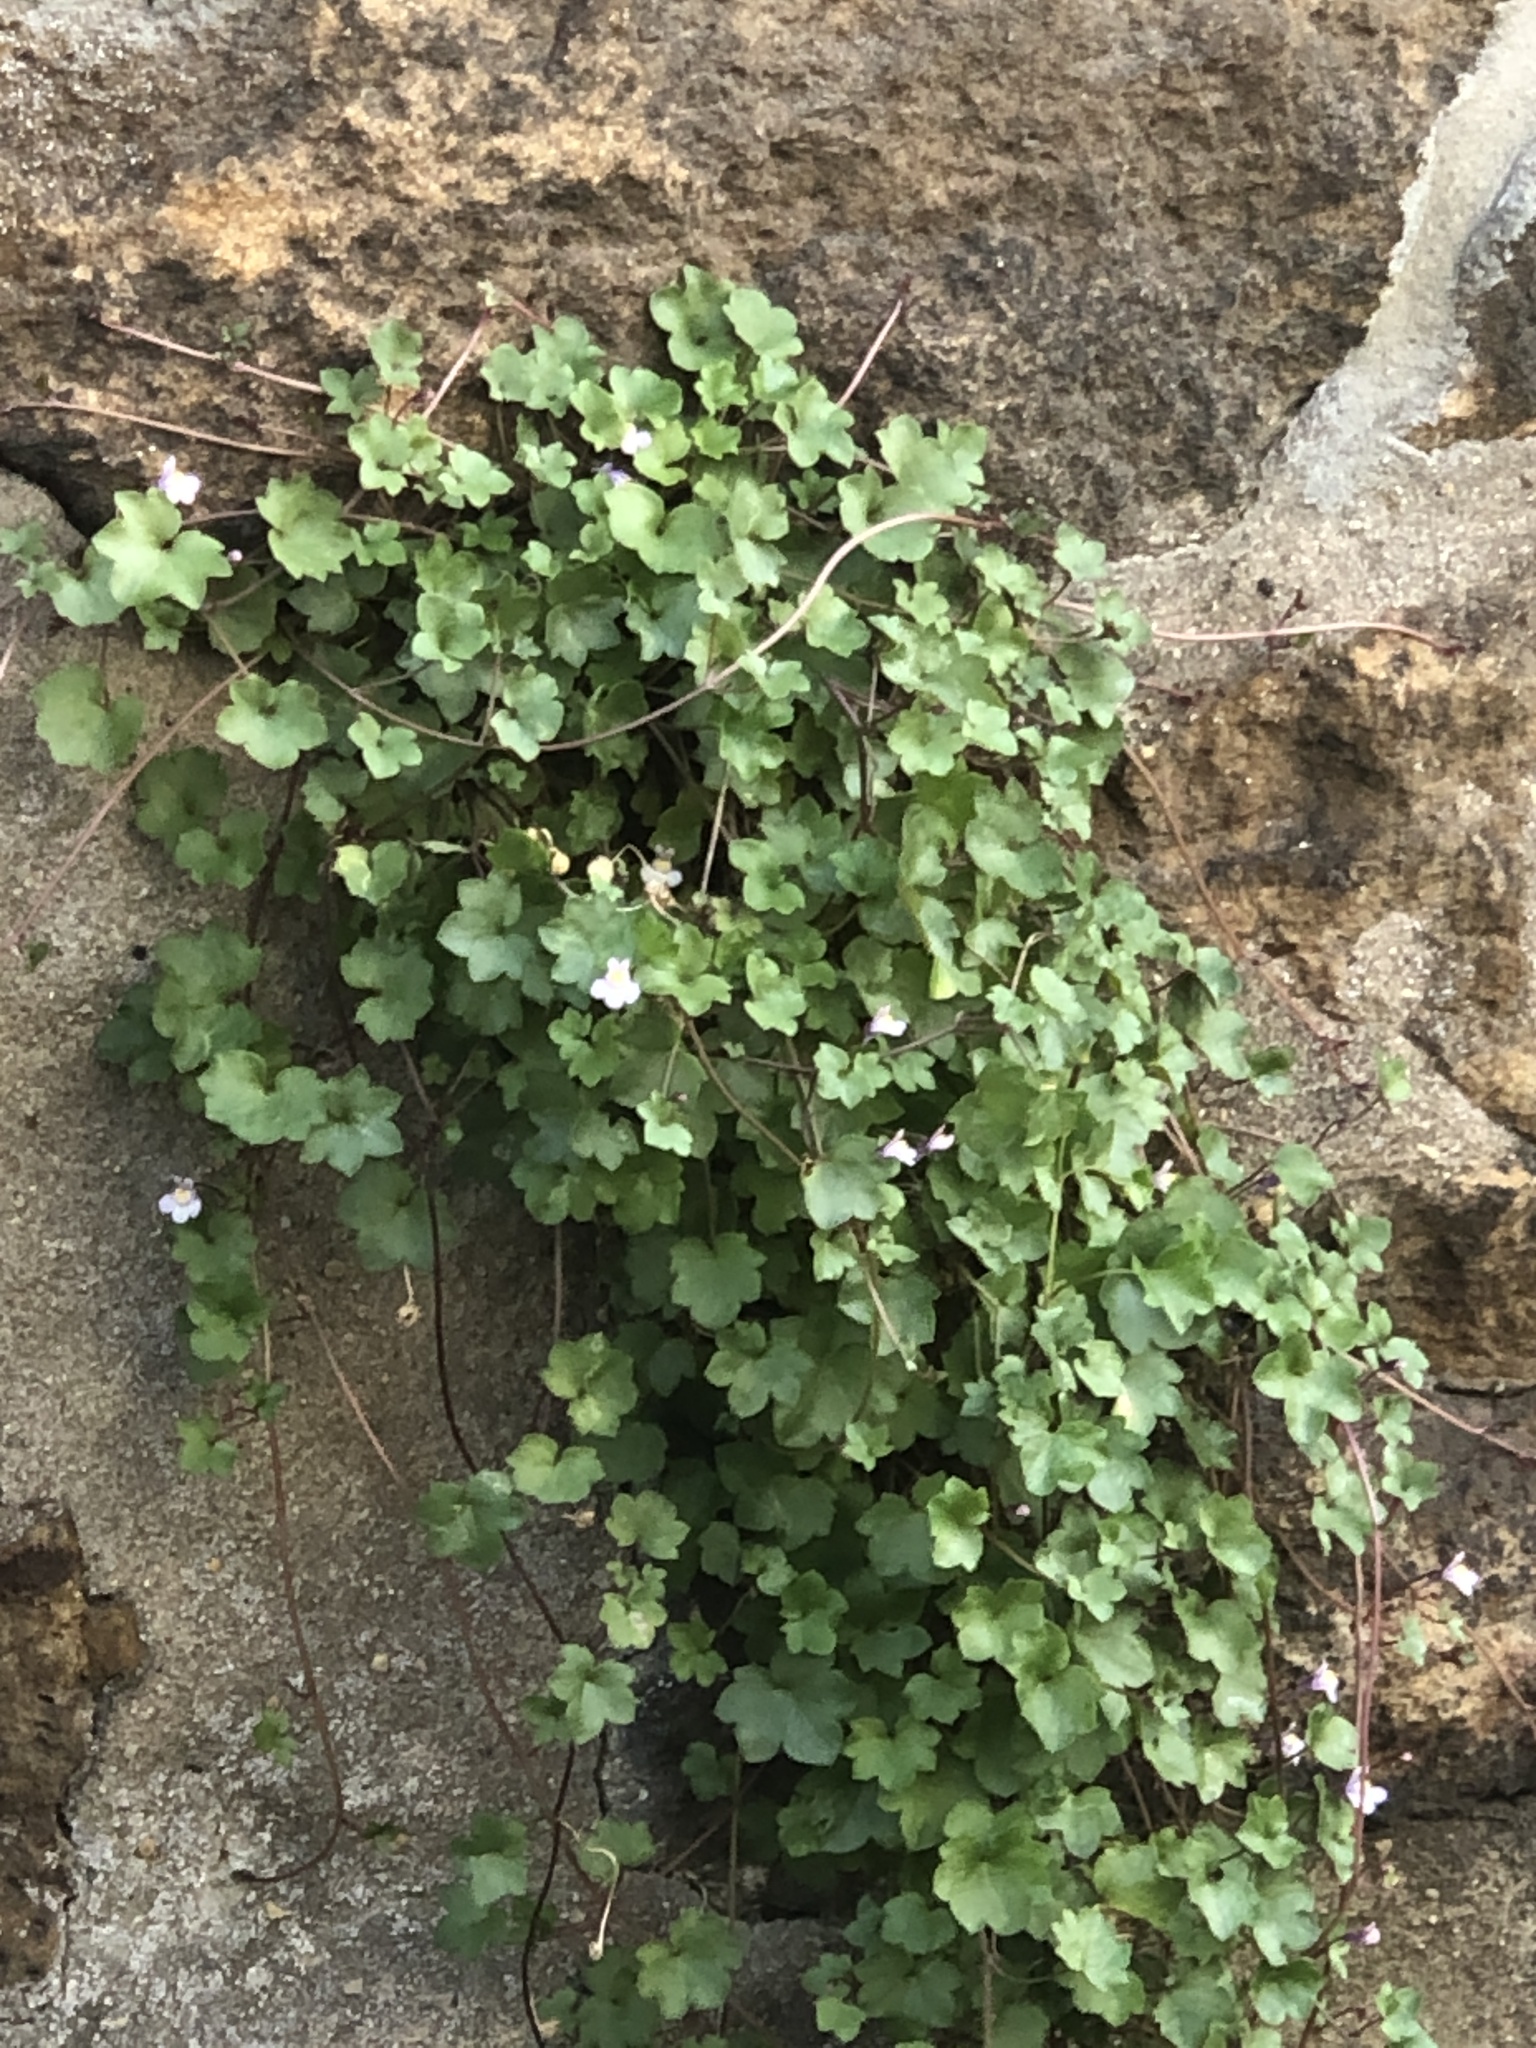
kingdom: Plantae
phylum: Tracheophyta
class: Magnoliopsida
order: Lamiales
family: Plantaginaceae
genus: Cymbalaria
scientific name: Cymbalaria muralis
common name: Ivy-leaved toadflax
